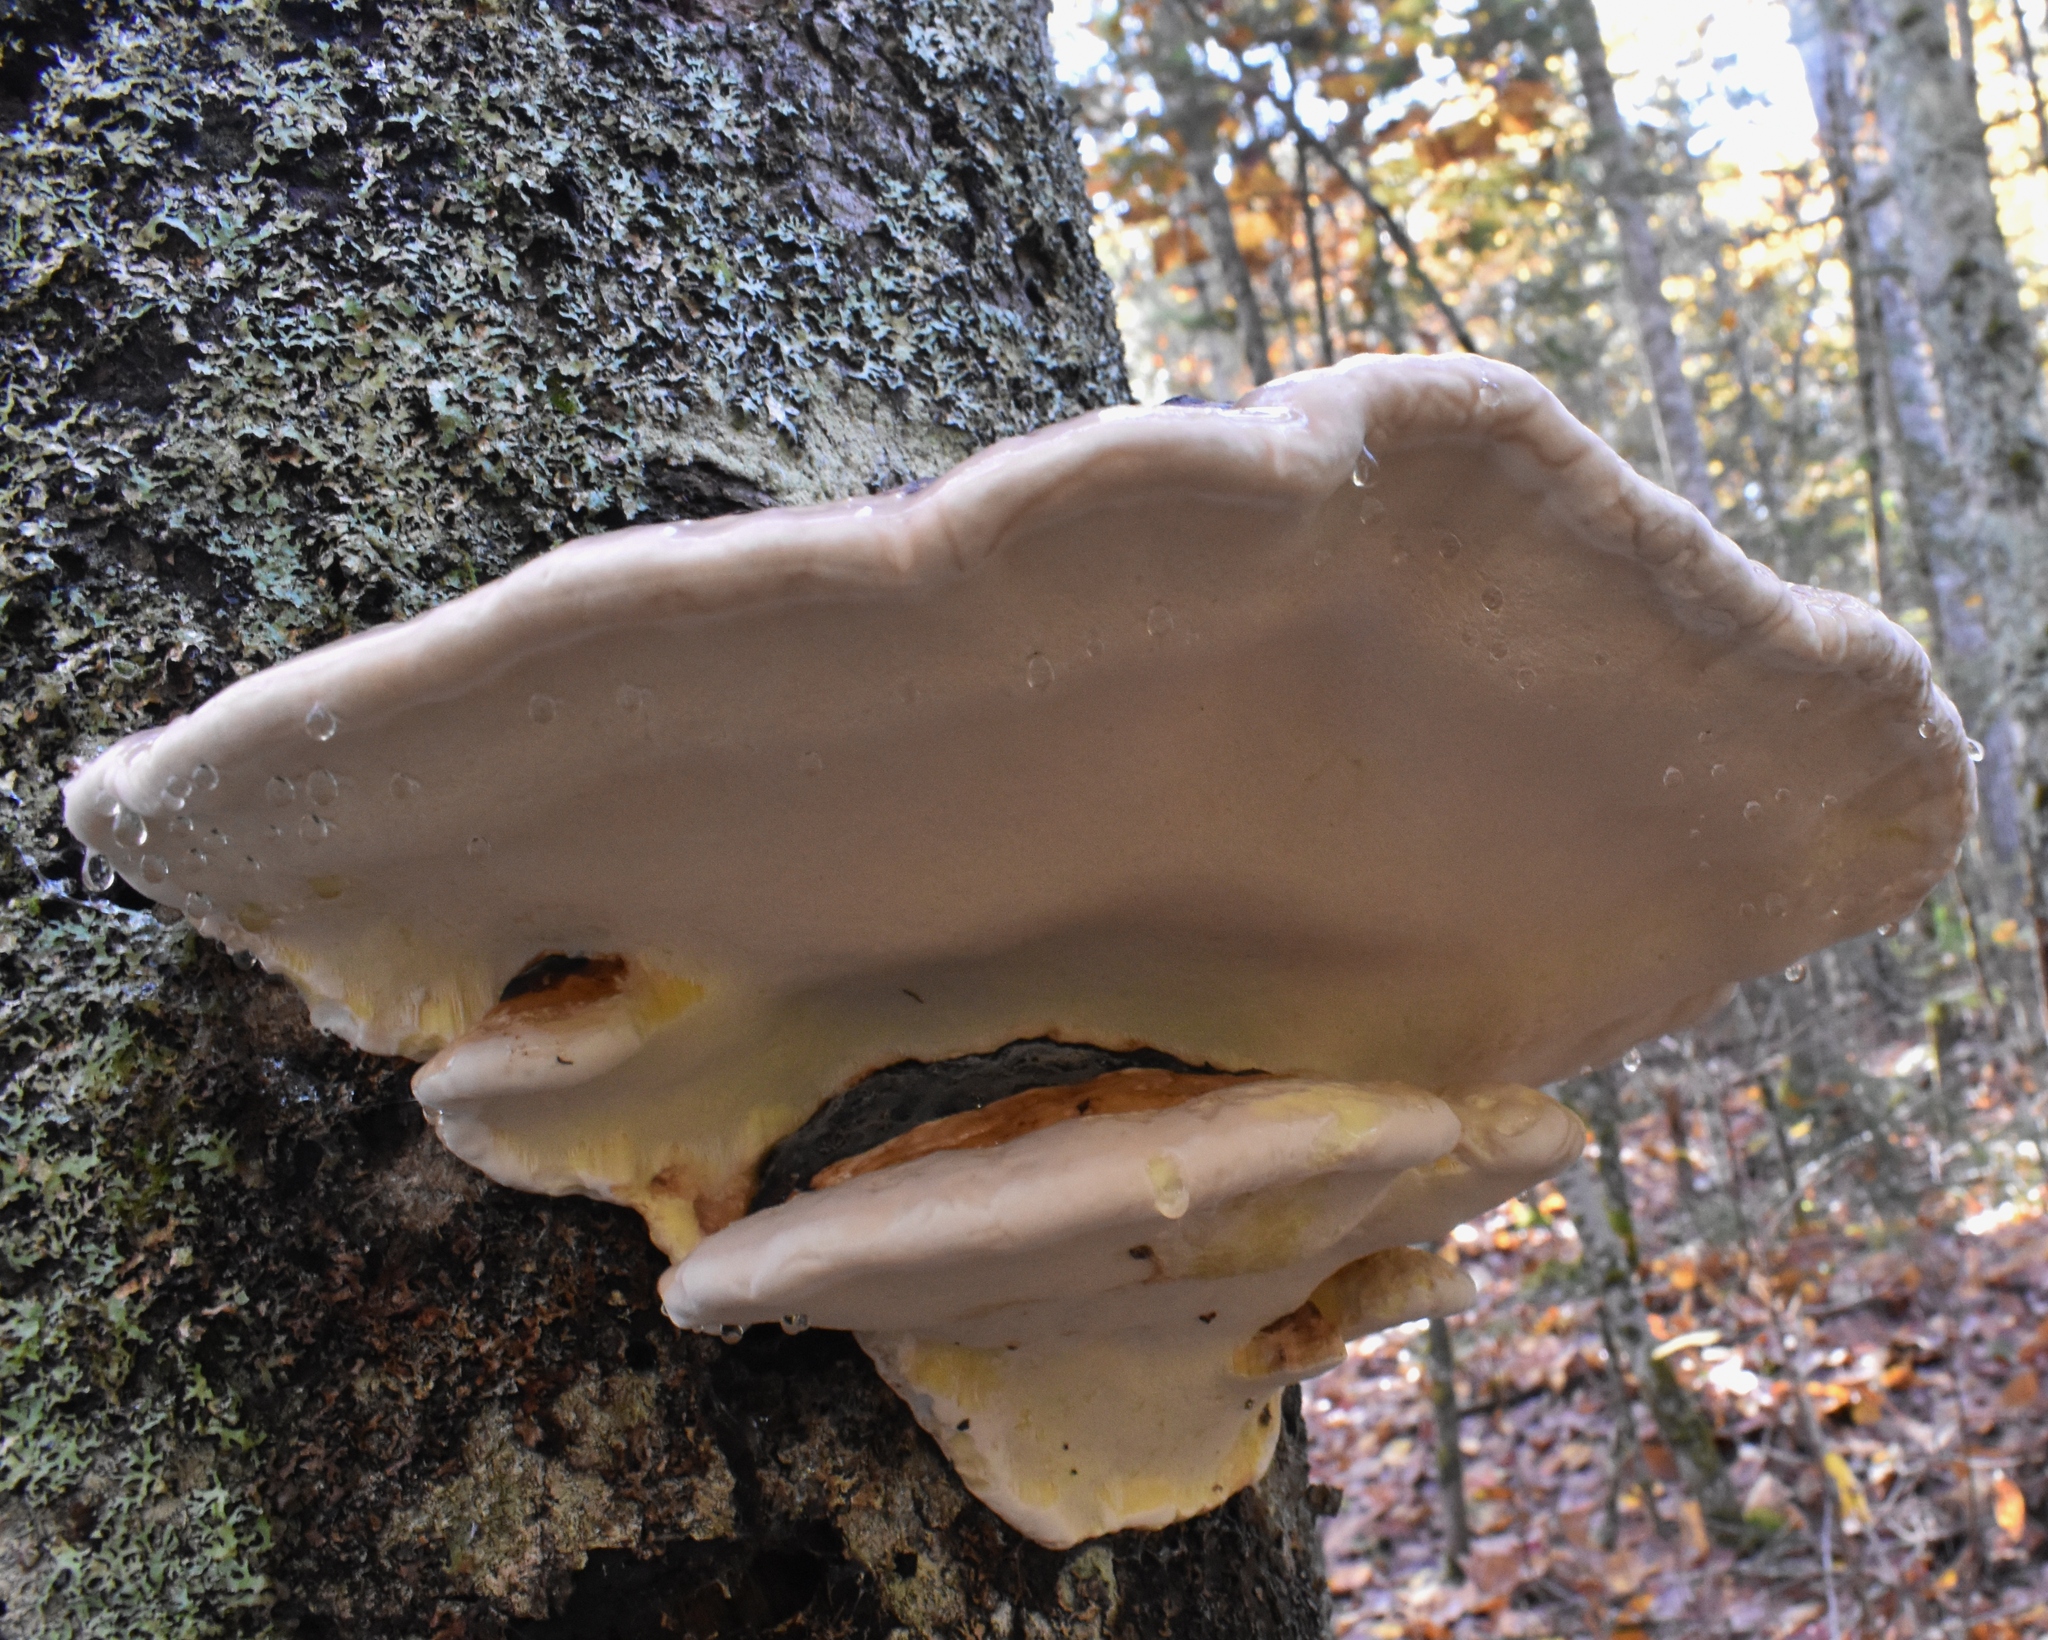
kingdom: Fungi
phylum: Basidiomycota
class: Agaricomycetes
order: Polyporales
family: Fomitopsidaceae
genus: Fomitopsis
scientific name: Fomitopsis mounceae
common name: Northern red belt
